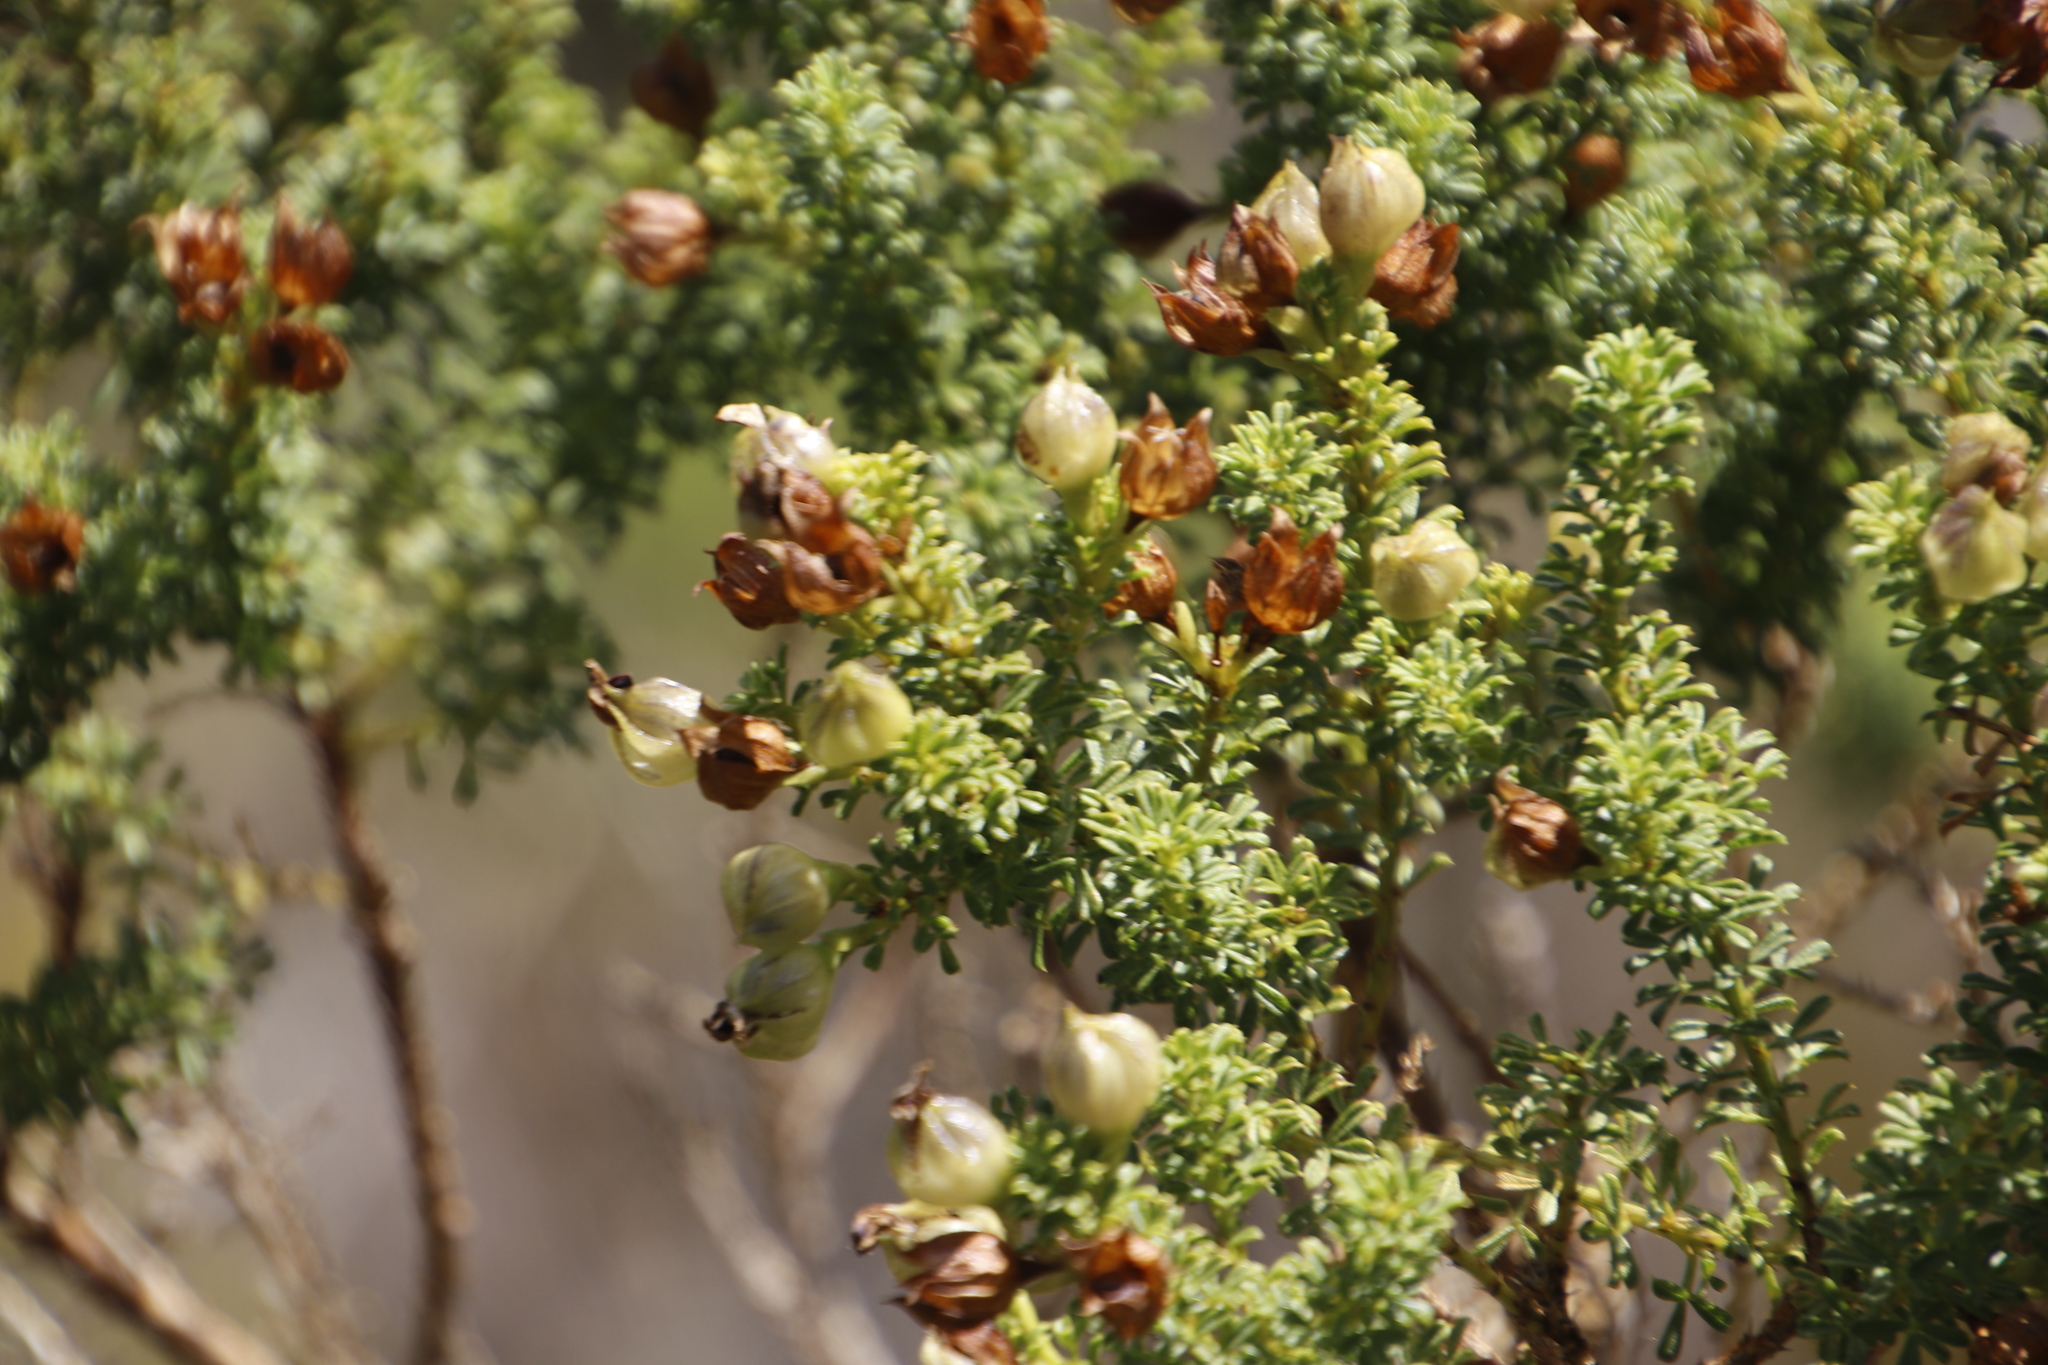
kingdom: Plantae
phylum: Tracheophyta
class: Magnoliopsida
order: Fabales
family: Fabaceae
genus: Psoralea
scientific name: Psoralea aculeata
